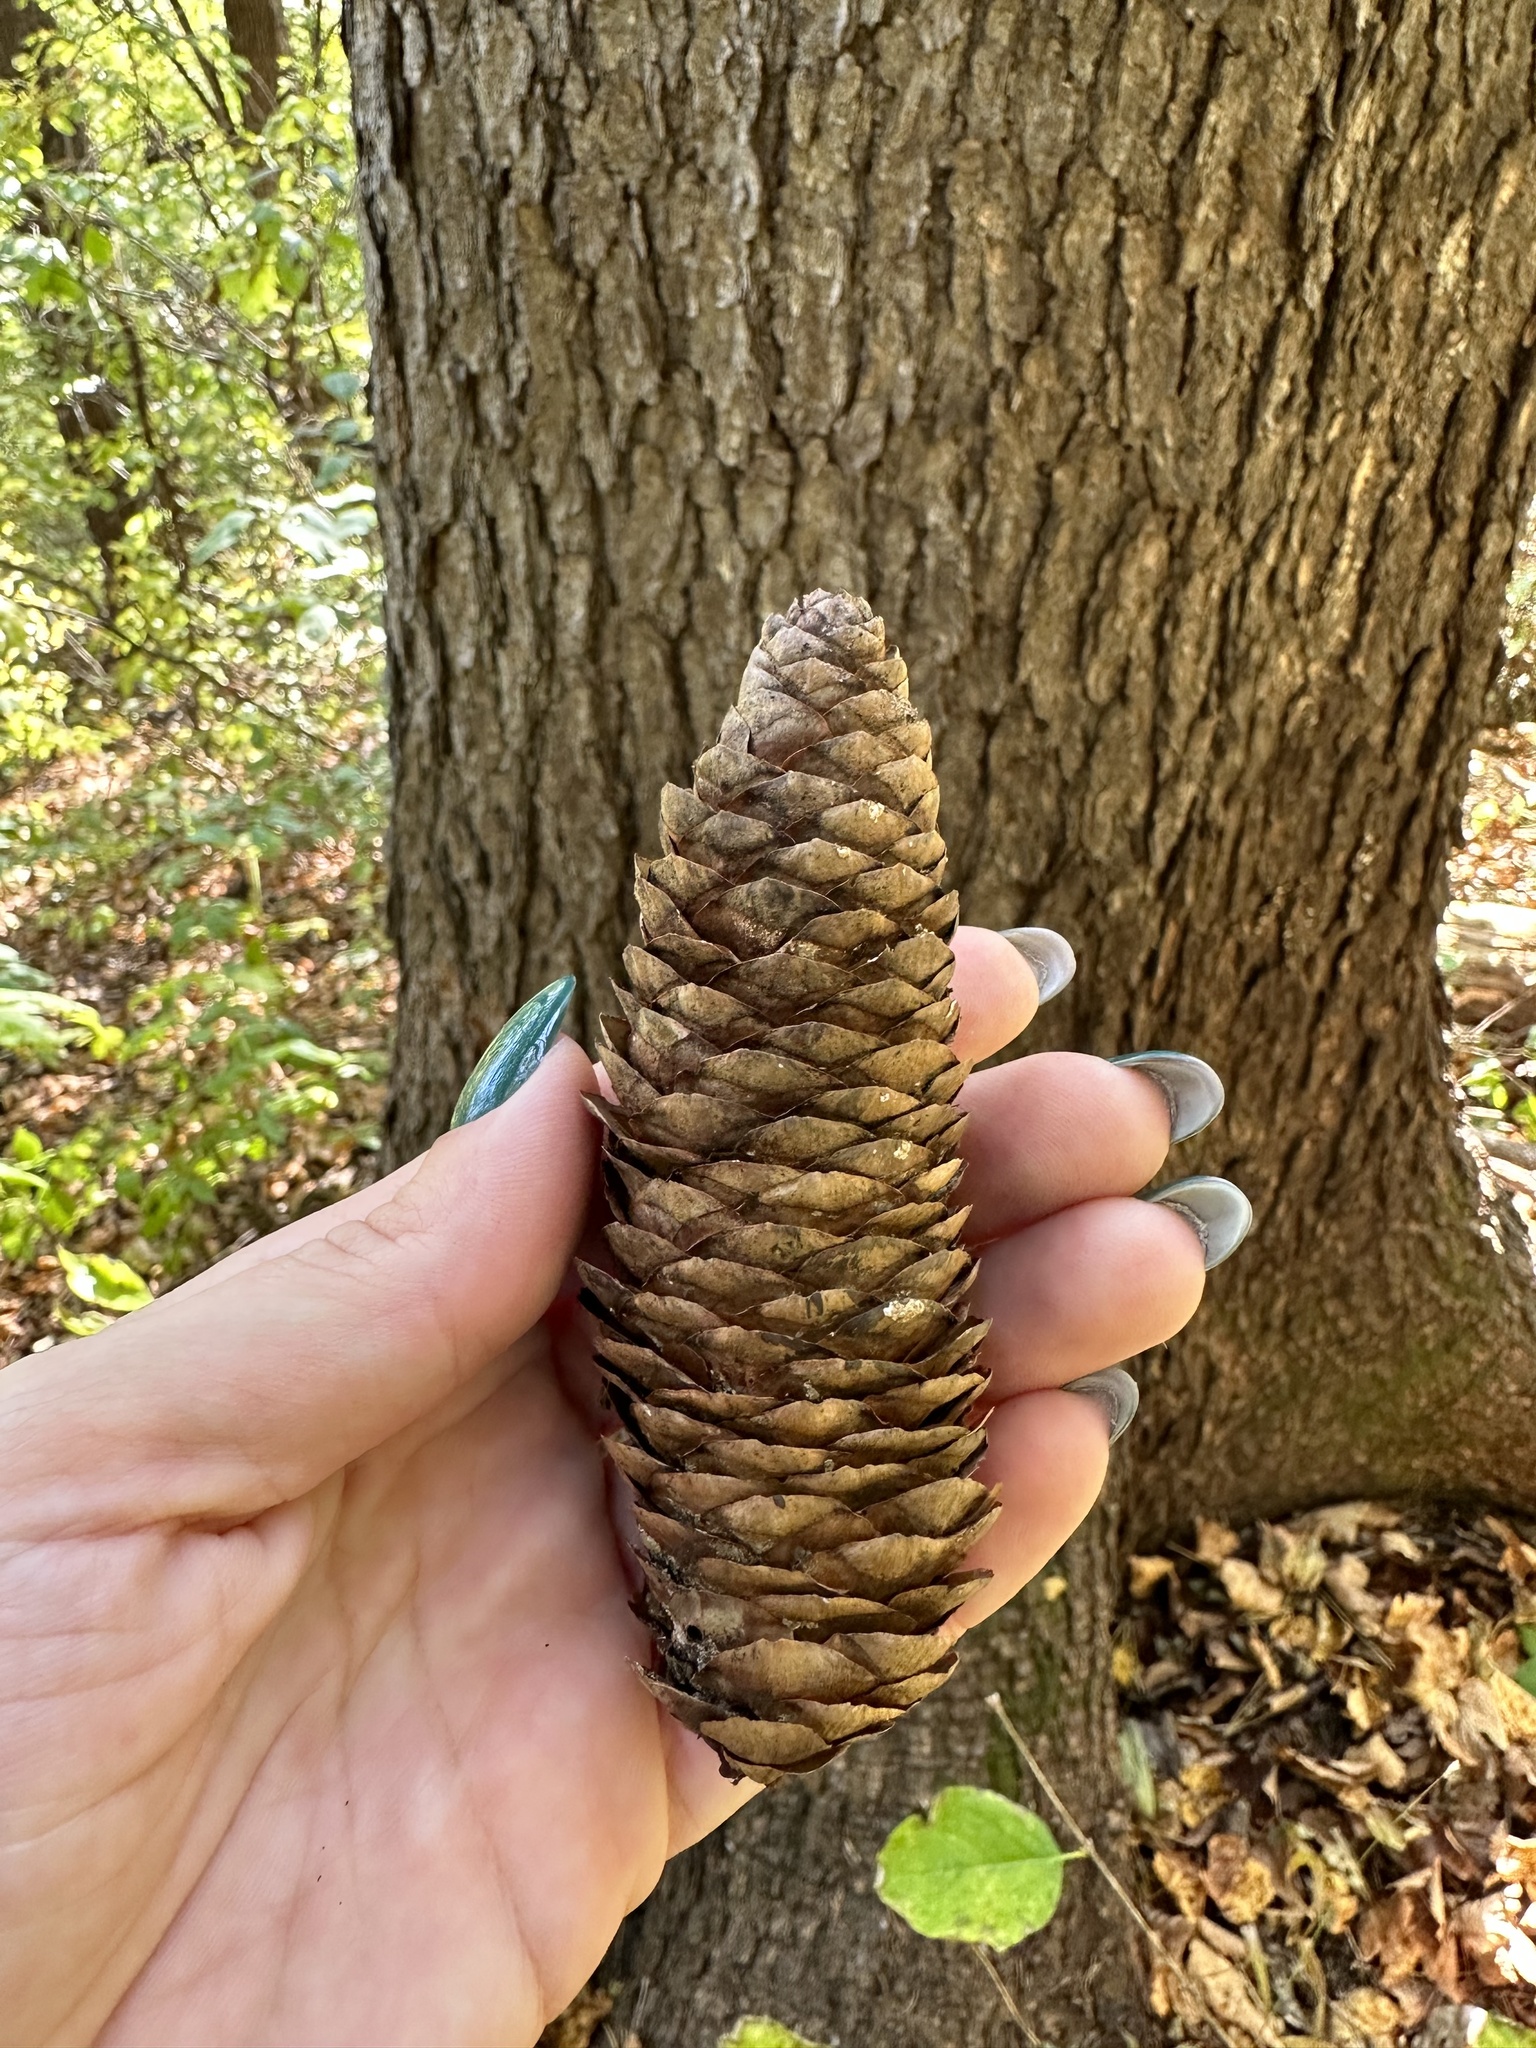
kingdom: Plantae
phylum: Tracheophyta
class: Pinopsida
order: Pinales
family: Pinaceae
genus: Picea
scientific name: Picea koraiensis
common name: Korean spruce
